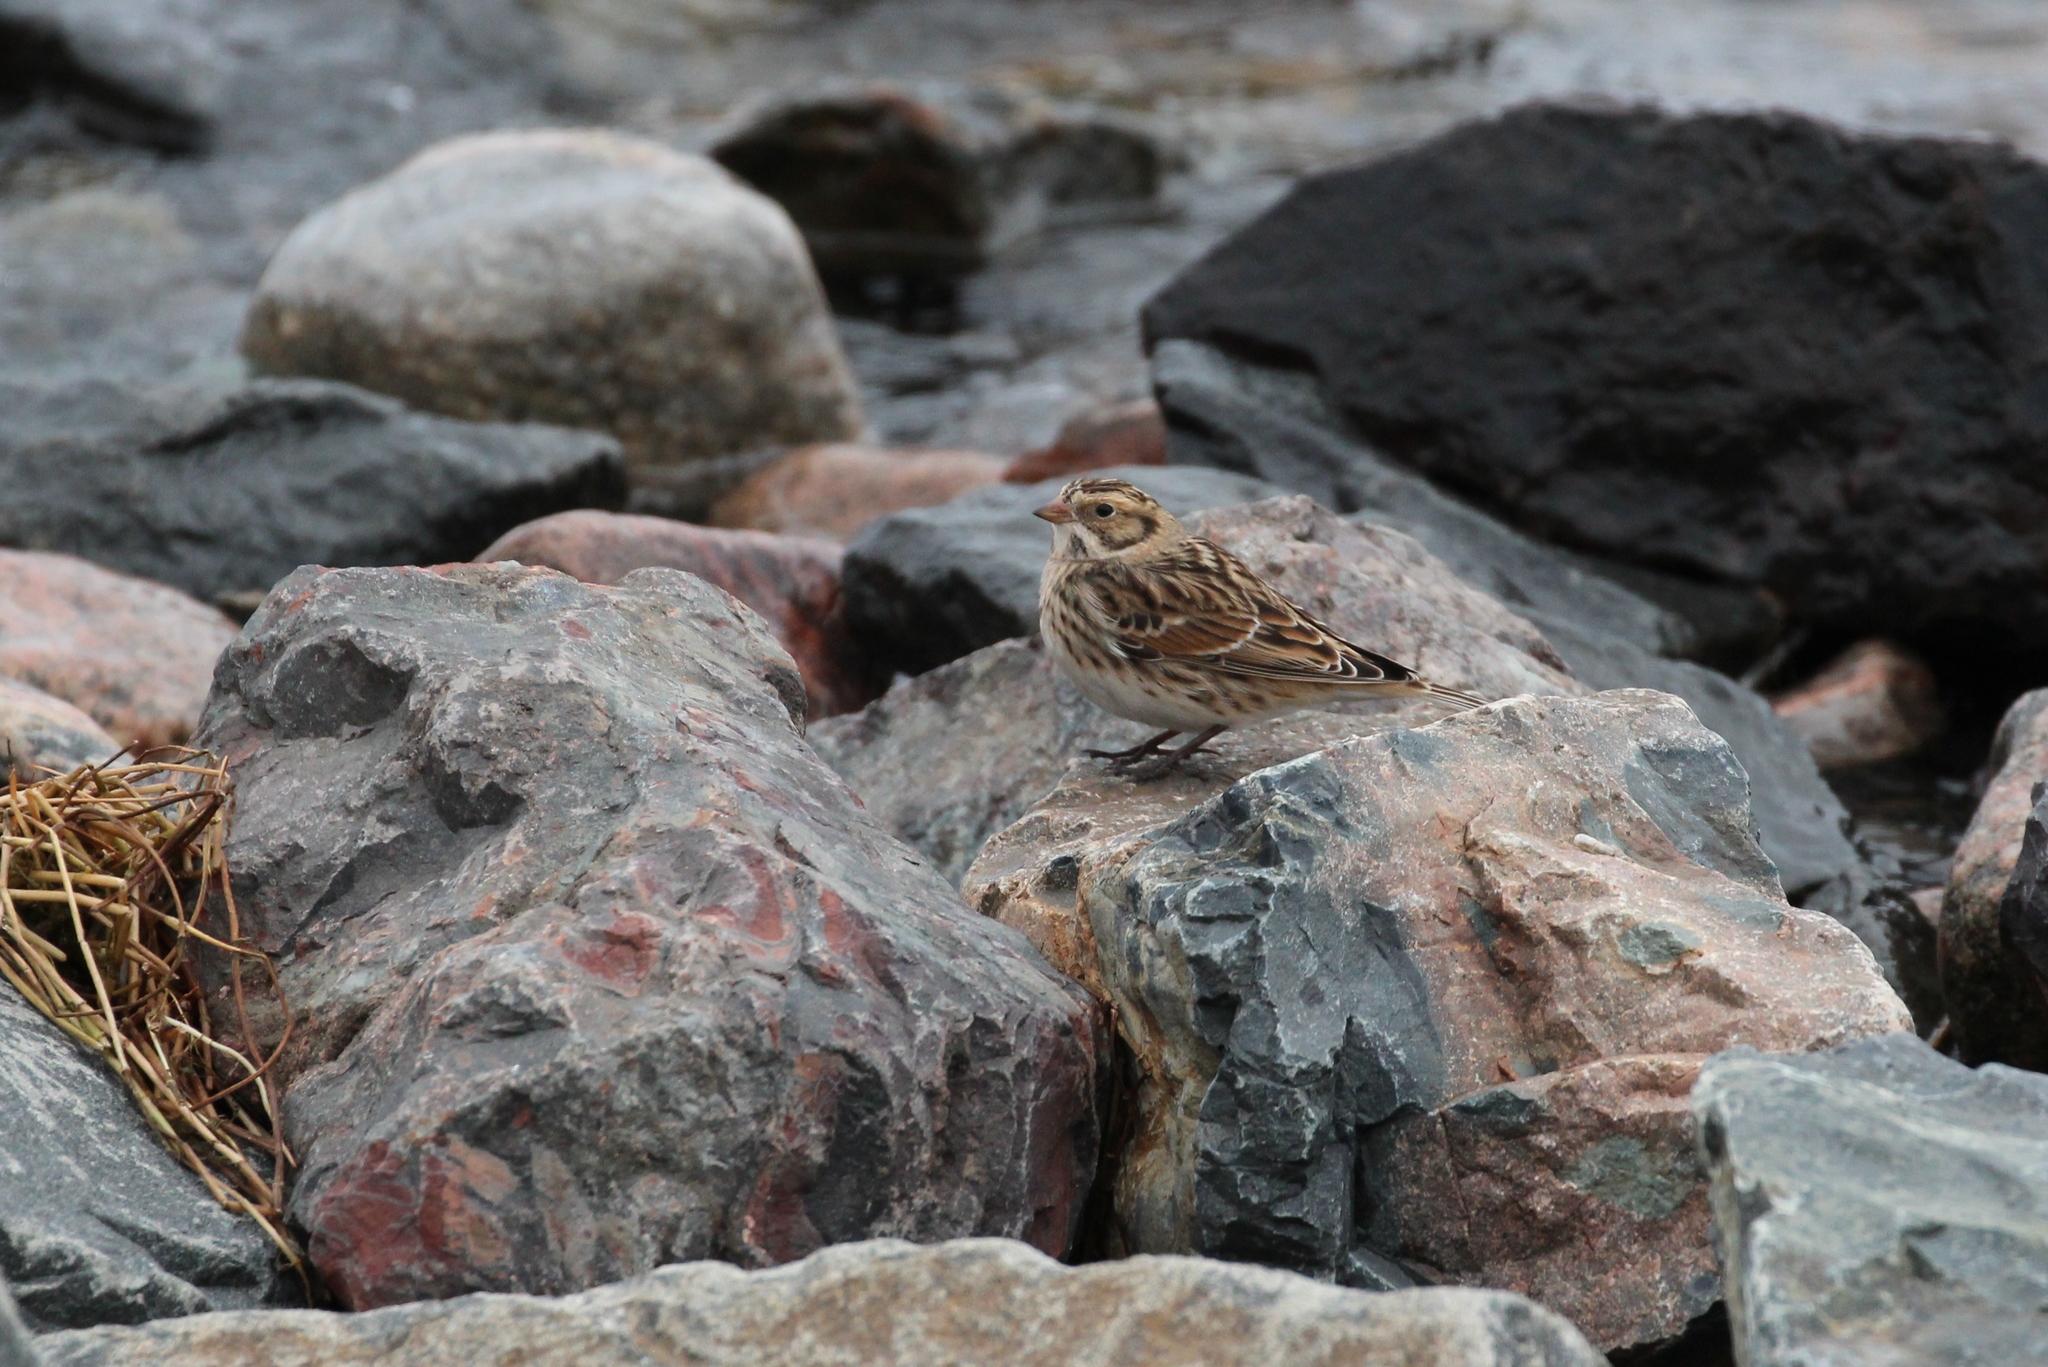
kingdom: Animalia
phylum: Chordata
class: Aves
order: Passeriformes
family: Calcariidae
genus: Calcarius
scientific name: Calcarius lapponicus
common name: Lapland longspur
